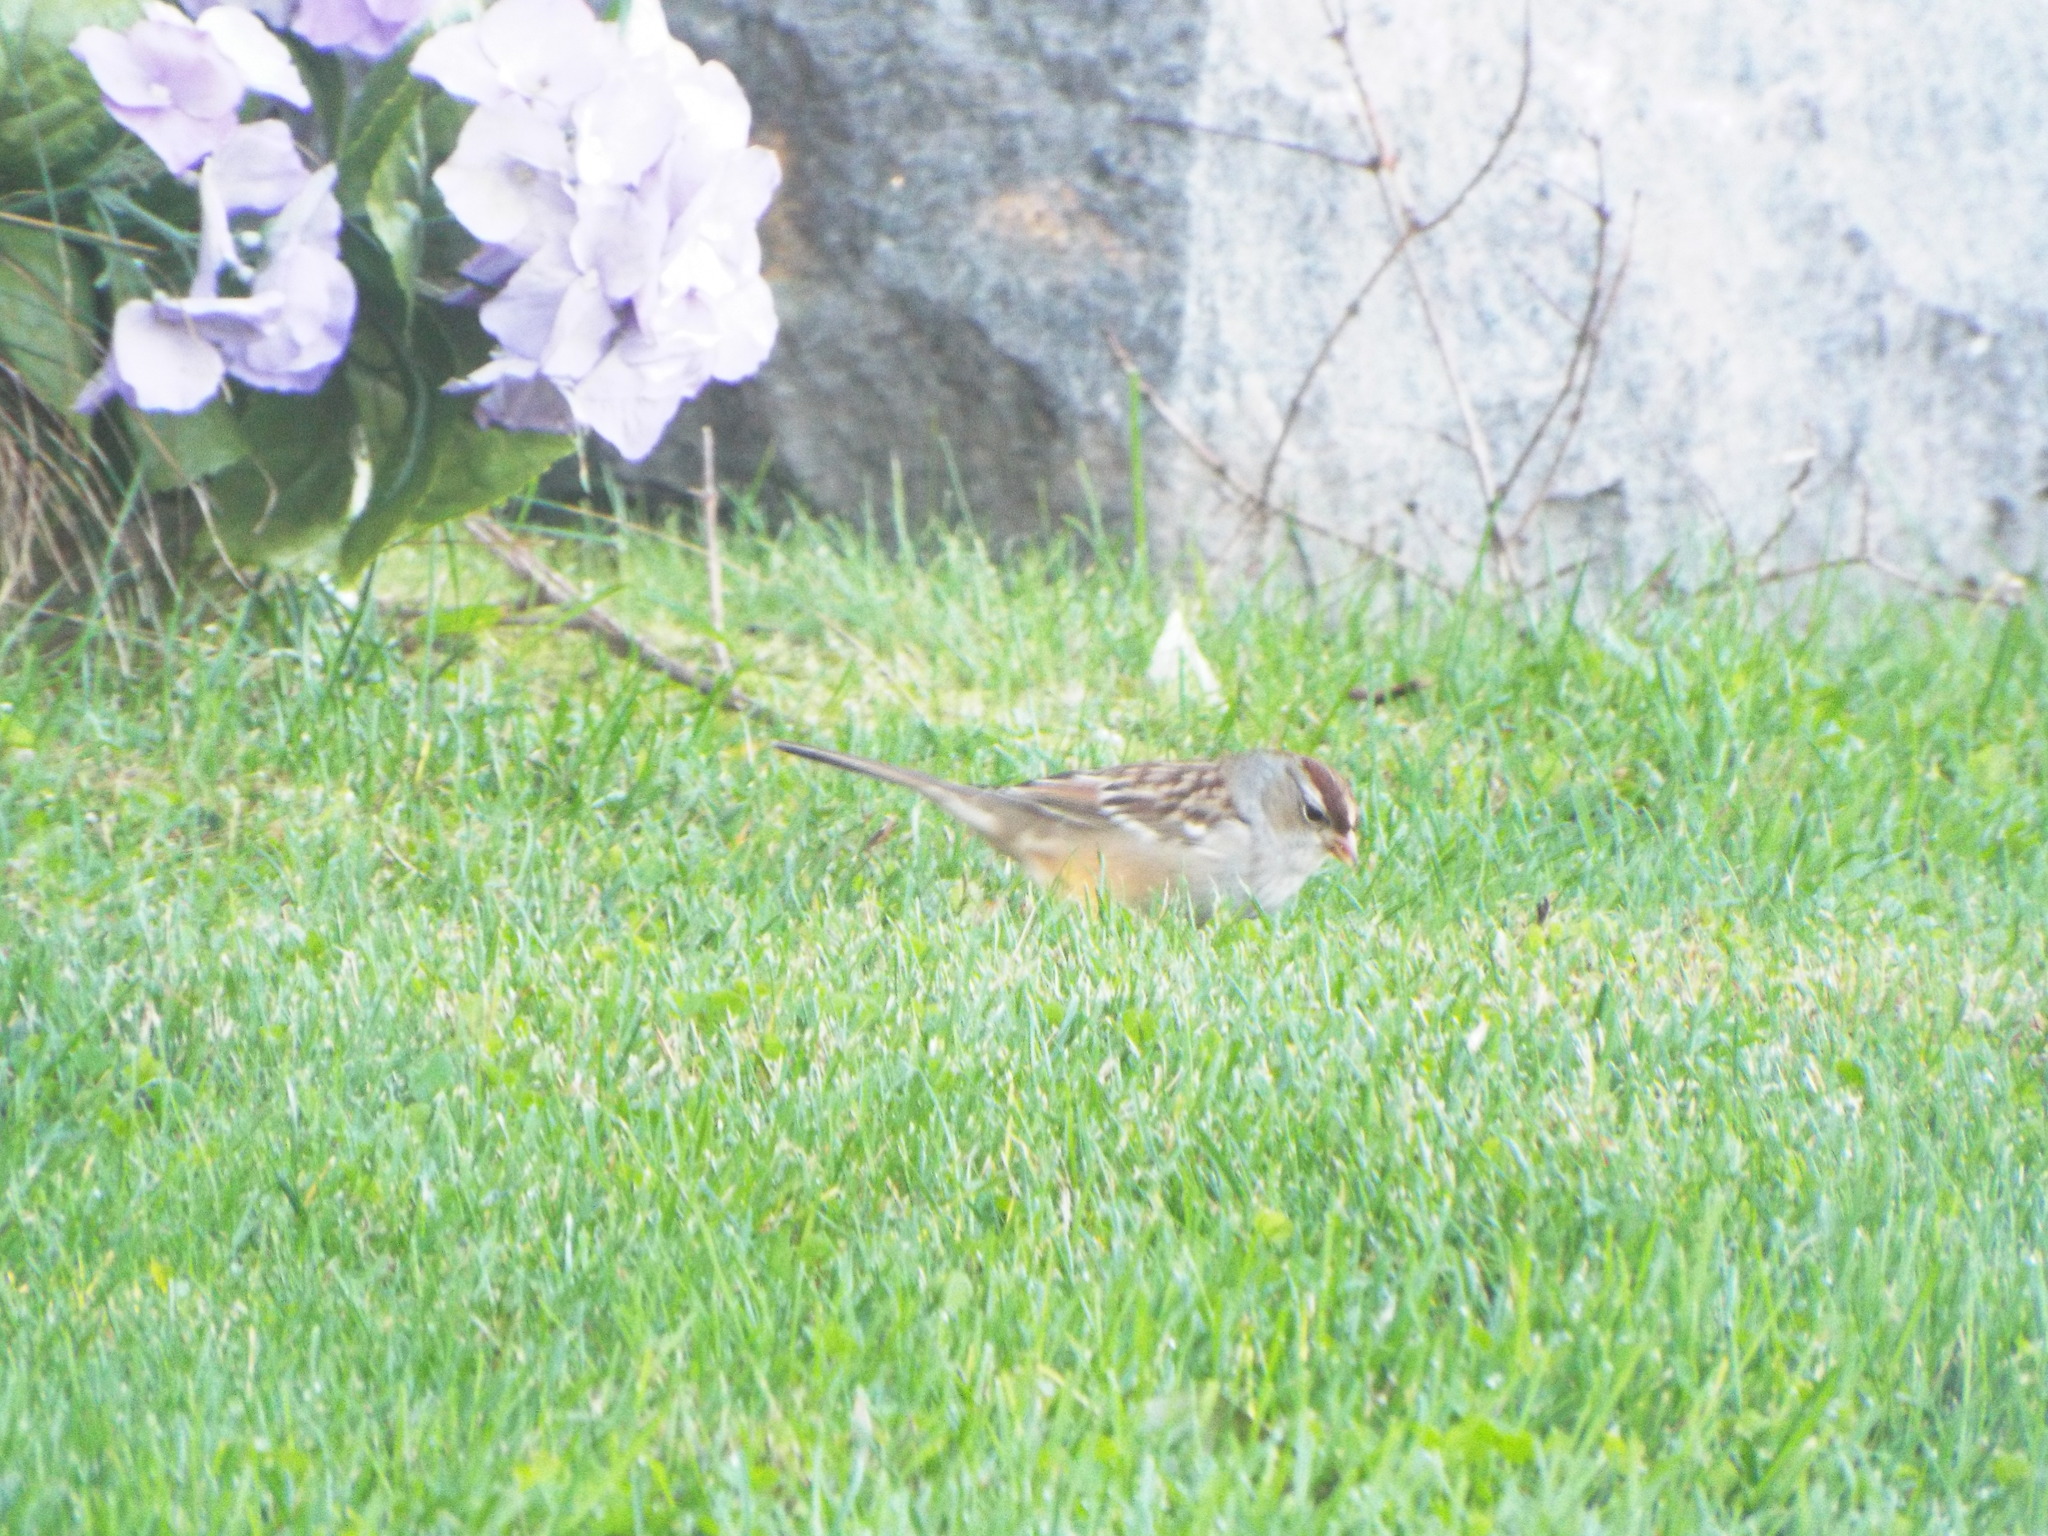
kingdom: Animalia
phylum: Chordata
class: Aves
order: Passeriformes
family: Passerellidae
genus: Zonotrichia
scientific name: Zonotrichia leucophrys
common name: White-crowned sparrow
